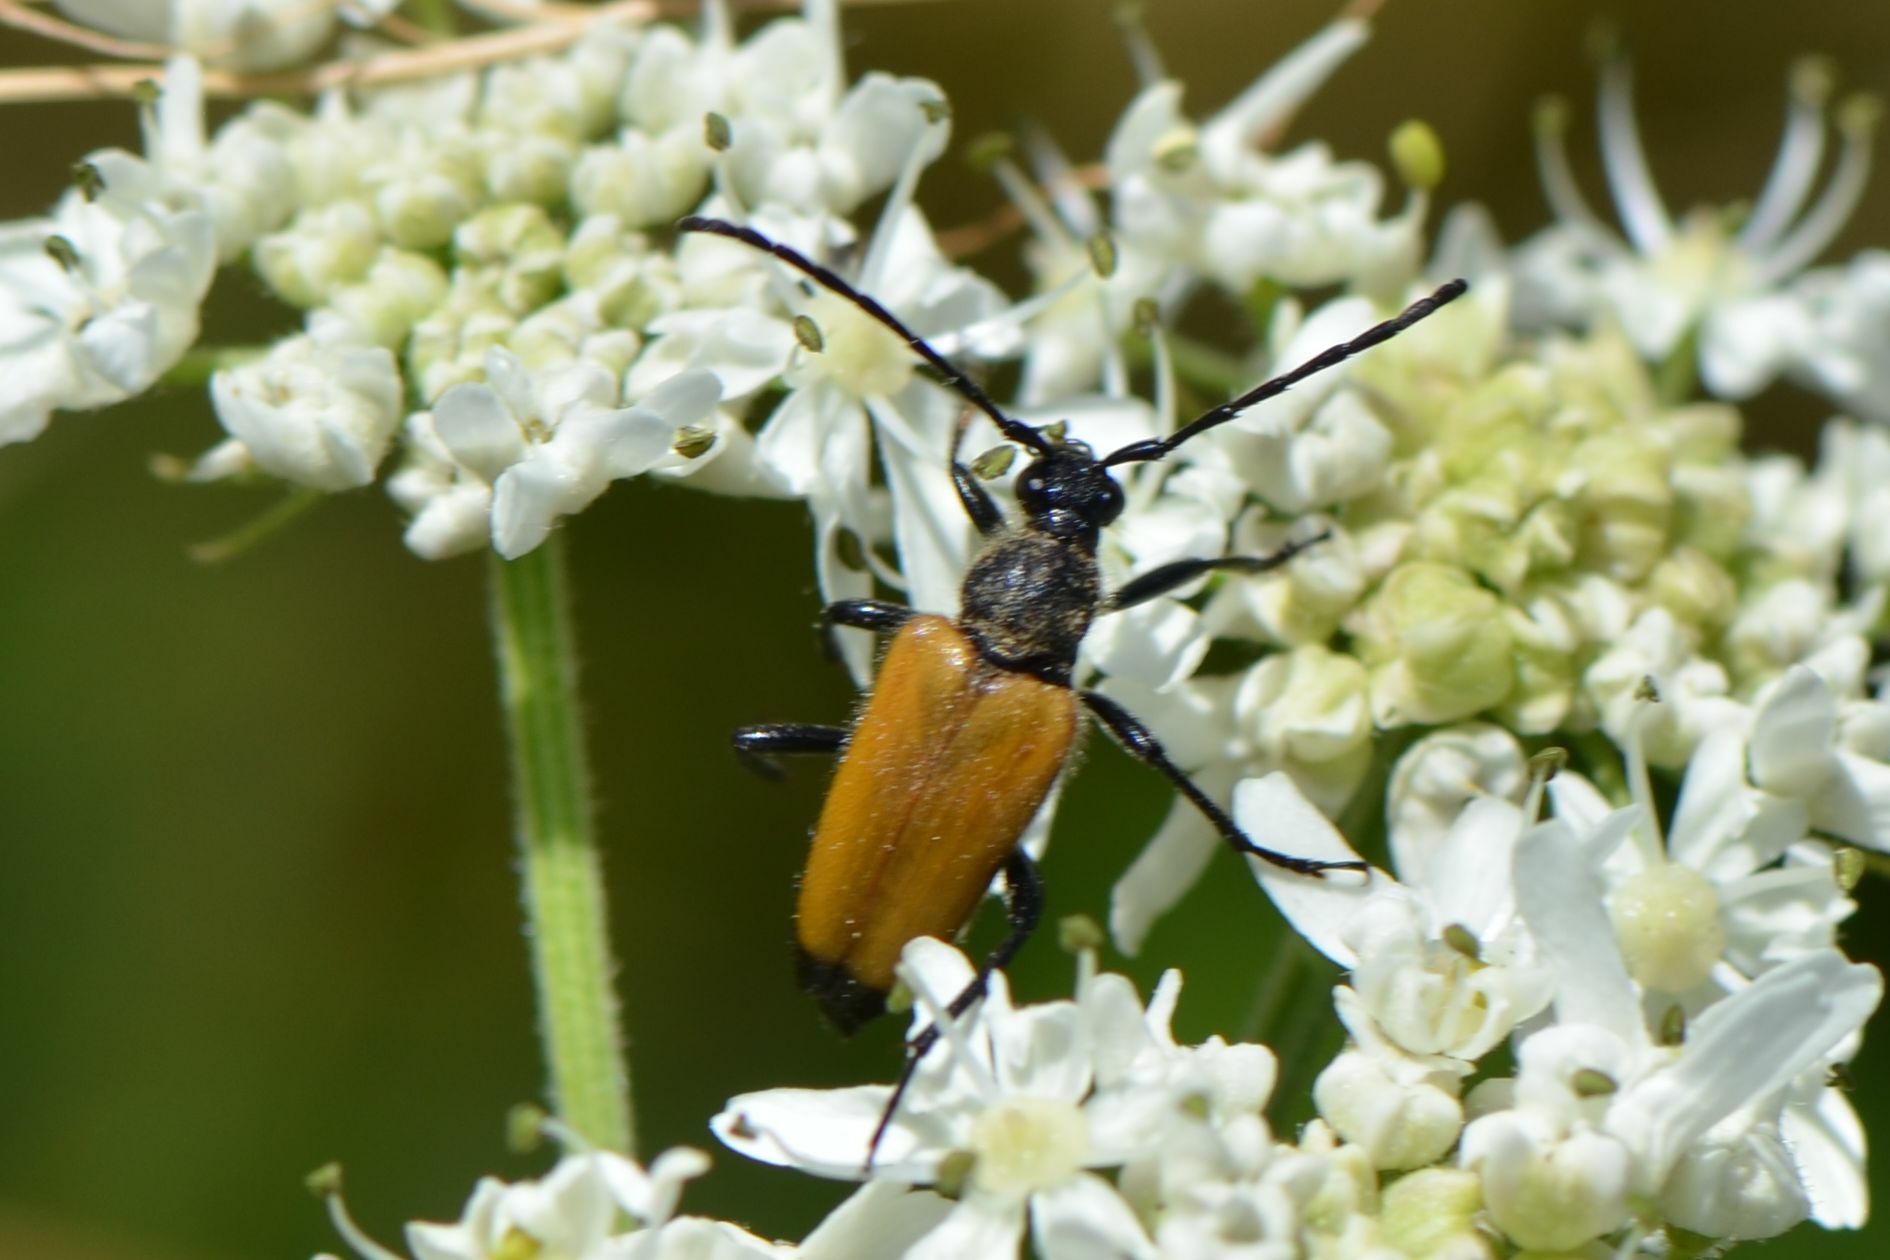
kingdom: Animalia
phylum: Arthropoda
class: Insecta
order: Coleoptera
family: Cerambycidae
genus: Paracorymbia
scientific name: Paracorymbia fulva
